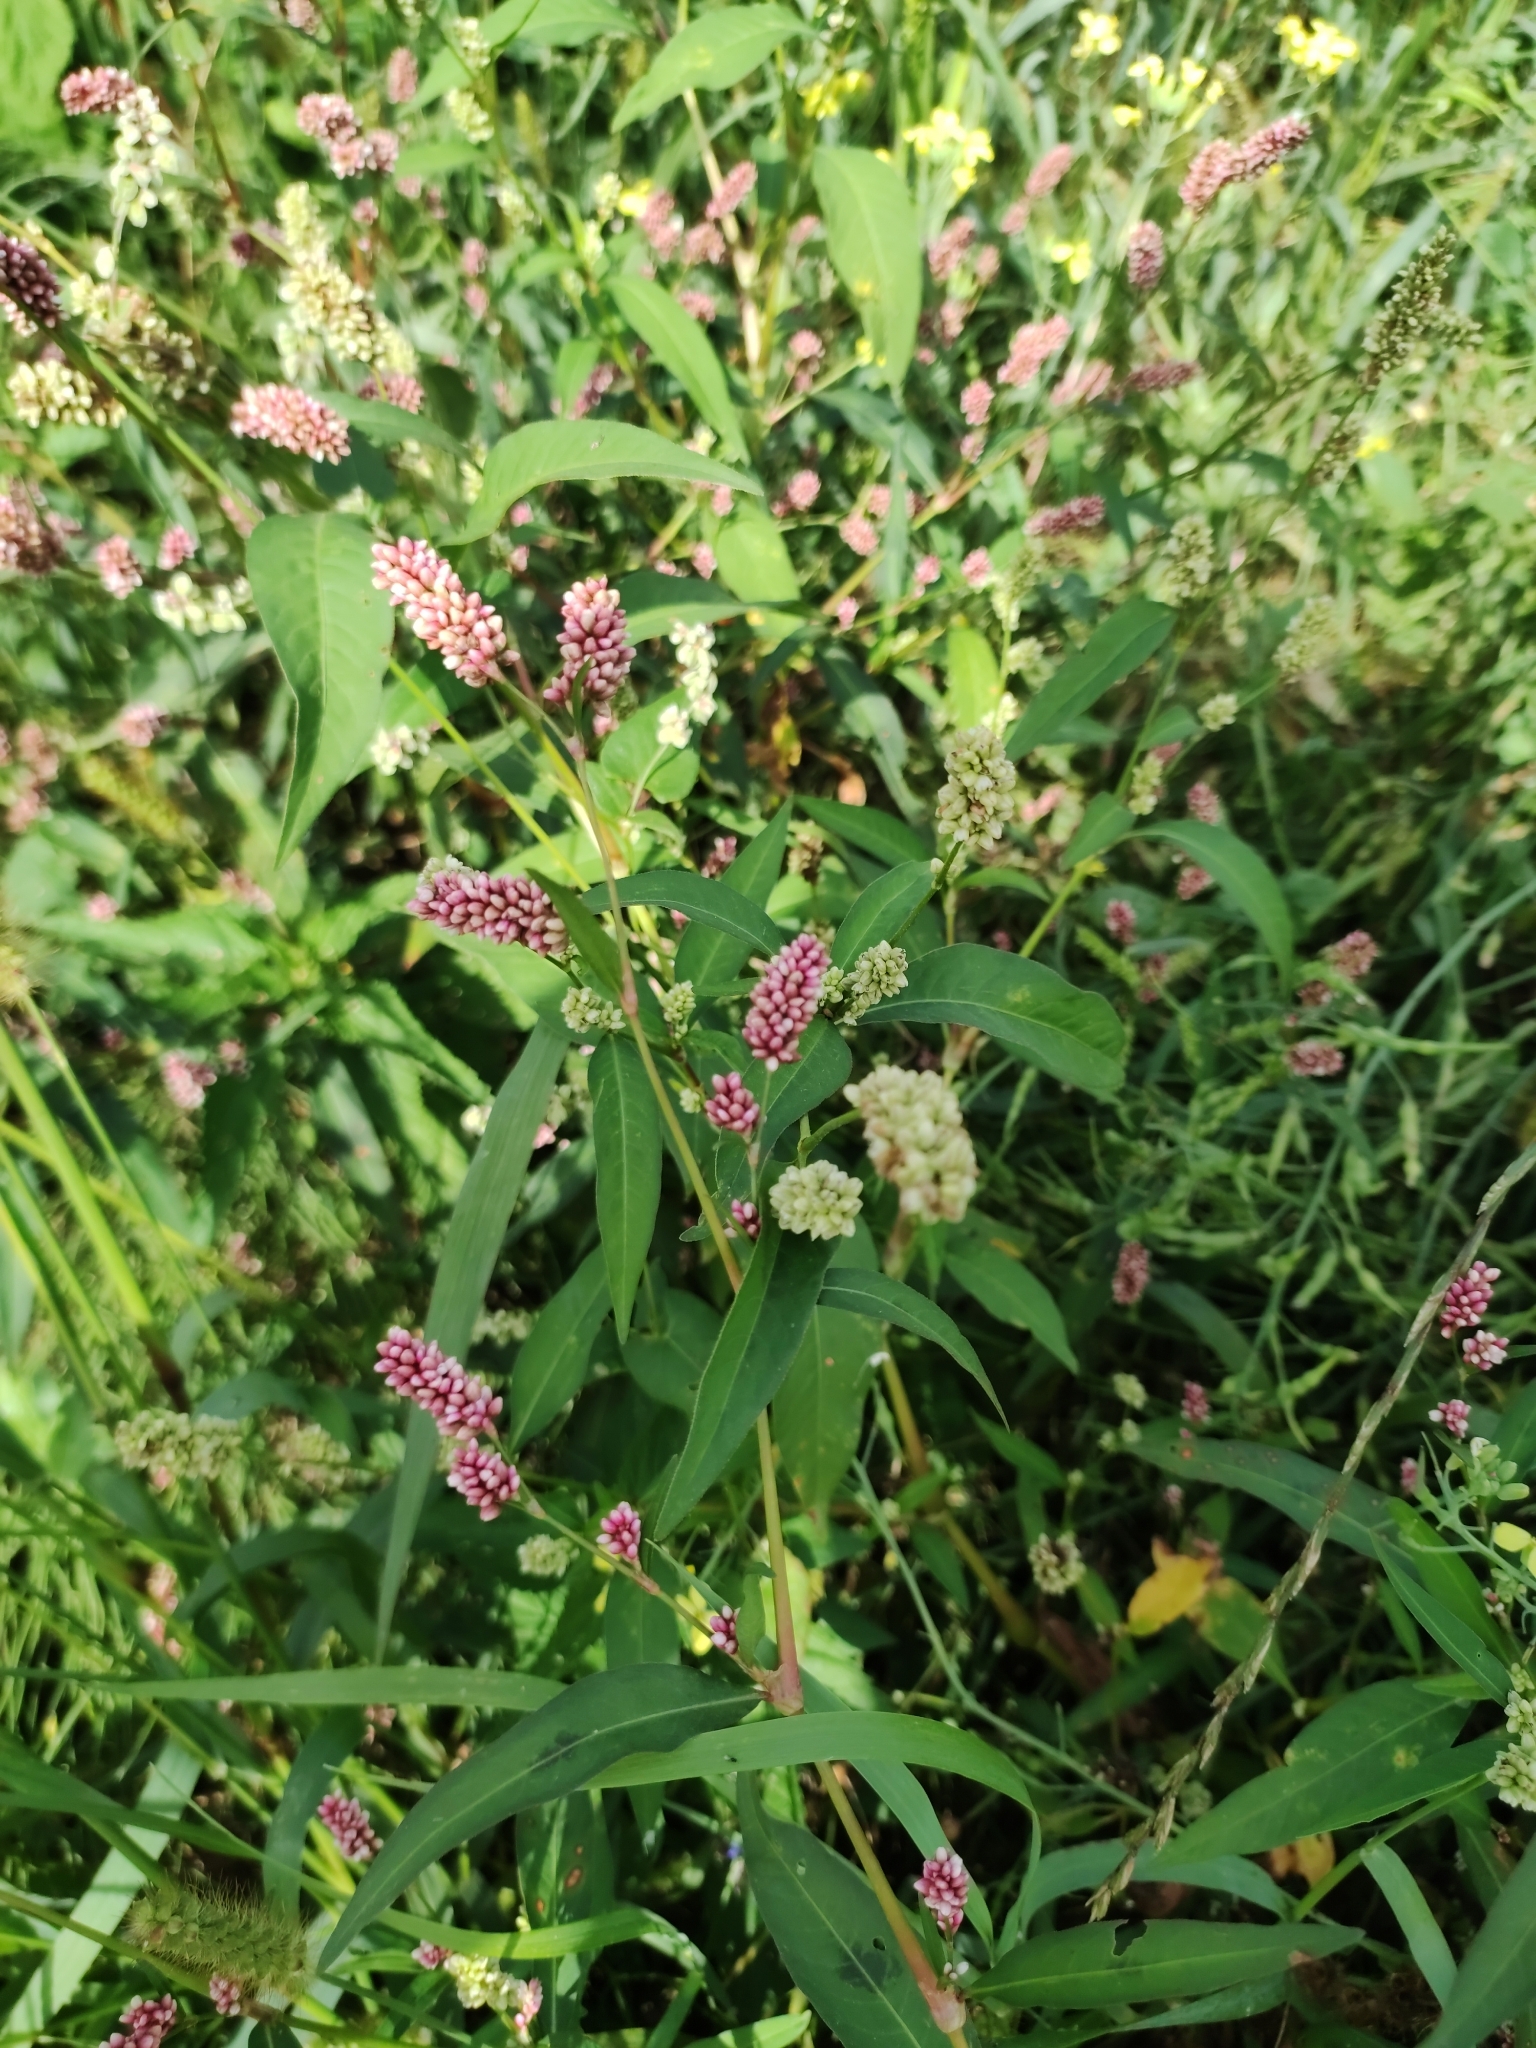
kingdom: Plantae
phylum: Tracheophyta
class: Magnoliopsida
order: Caryophyllales
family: Polygonaceae
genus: Persicaria
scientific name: Persicaria maculosa
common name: Redshank
